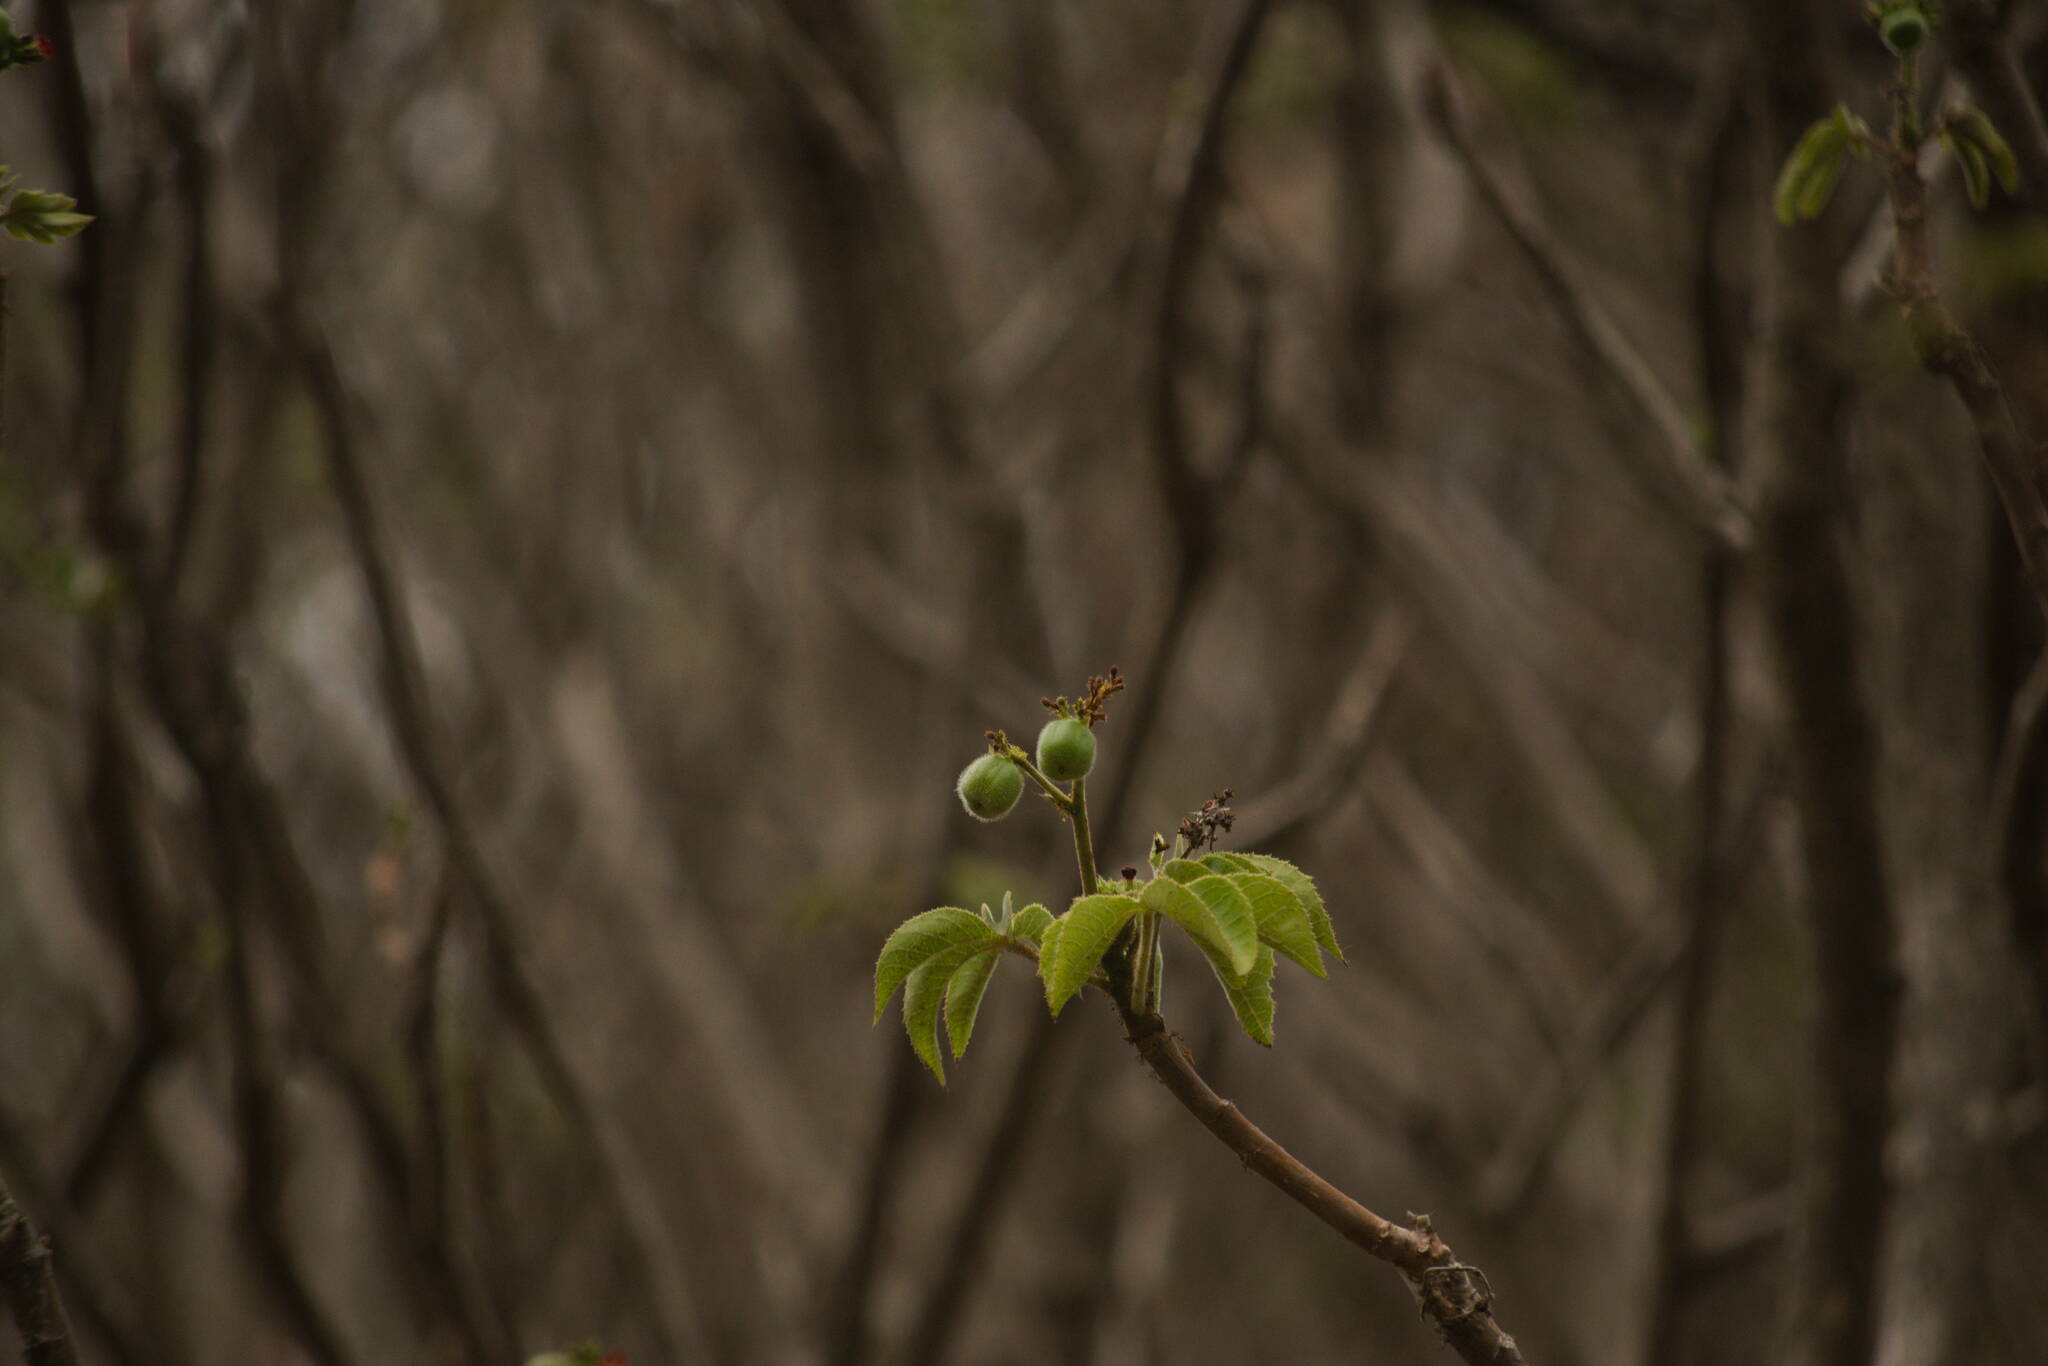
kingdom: Plantae
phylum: Tracheophyta
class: Magnoliopsida
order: Malpighiales
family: Euphorbiaceae
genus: Jatropha
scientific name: Jatropha gossypiifolia
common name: Bellyache bush
